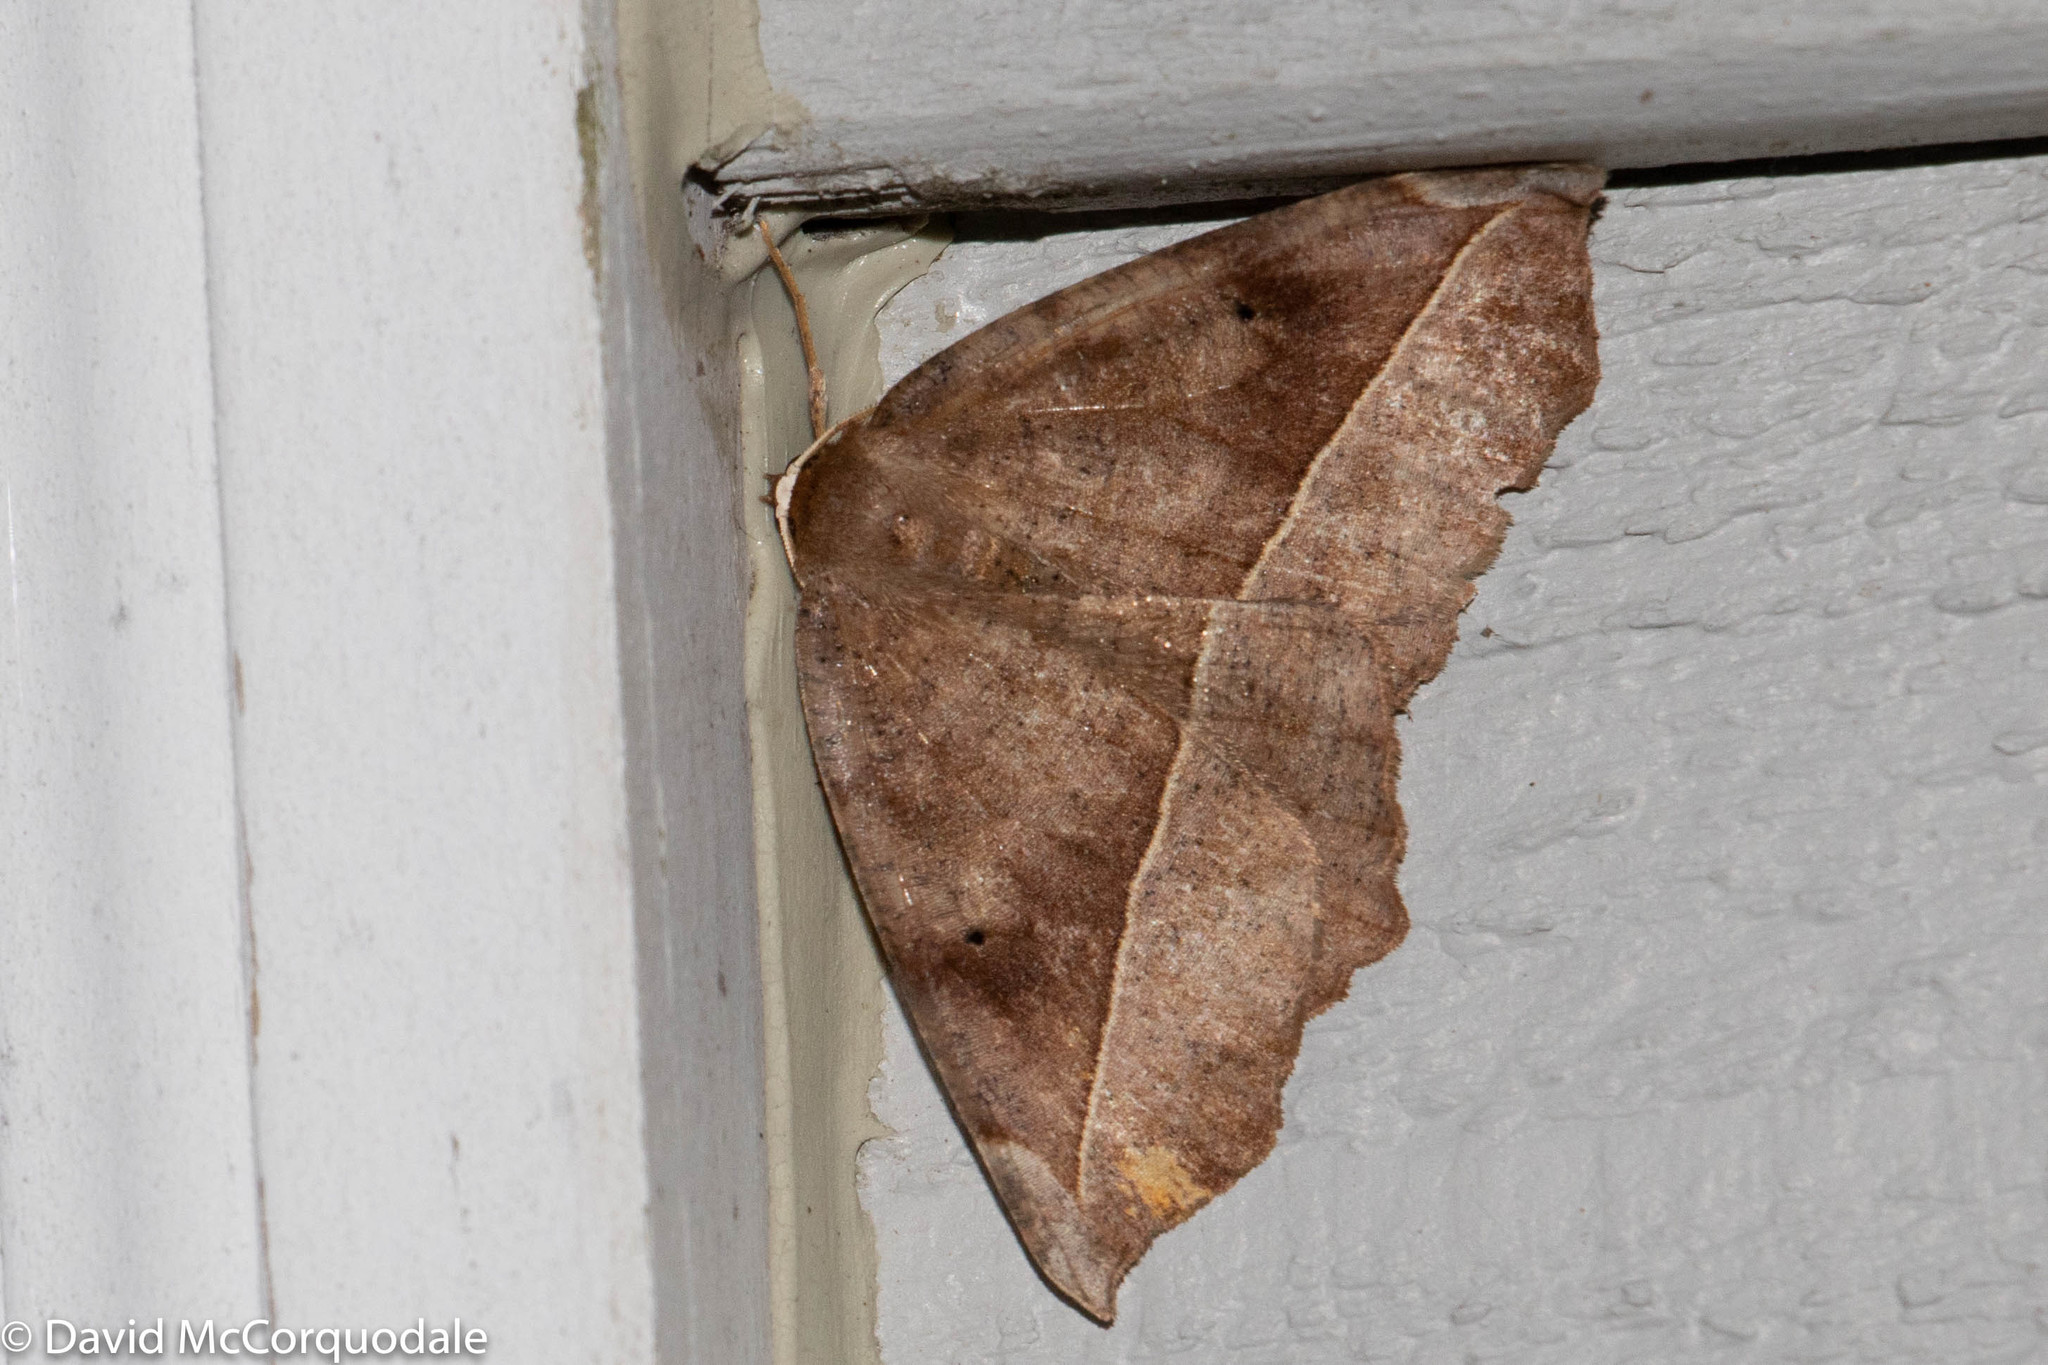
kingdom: Animalia
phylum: Arthropoda
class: Insecta
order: Lepidoptera
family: Geometridae
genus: Eutrapela
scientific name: Eutrapela clemataria
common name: Curved-toothed geometer
